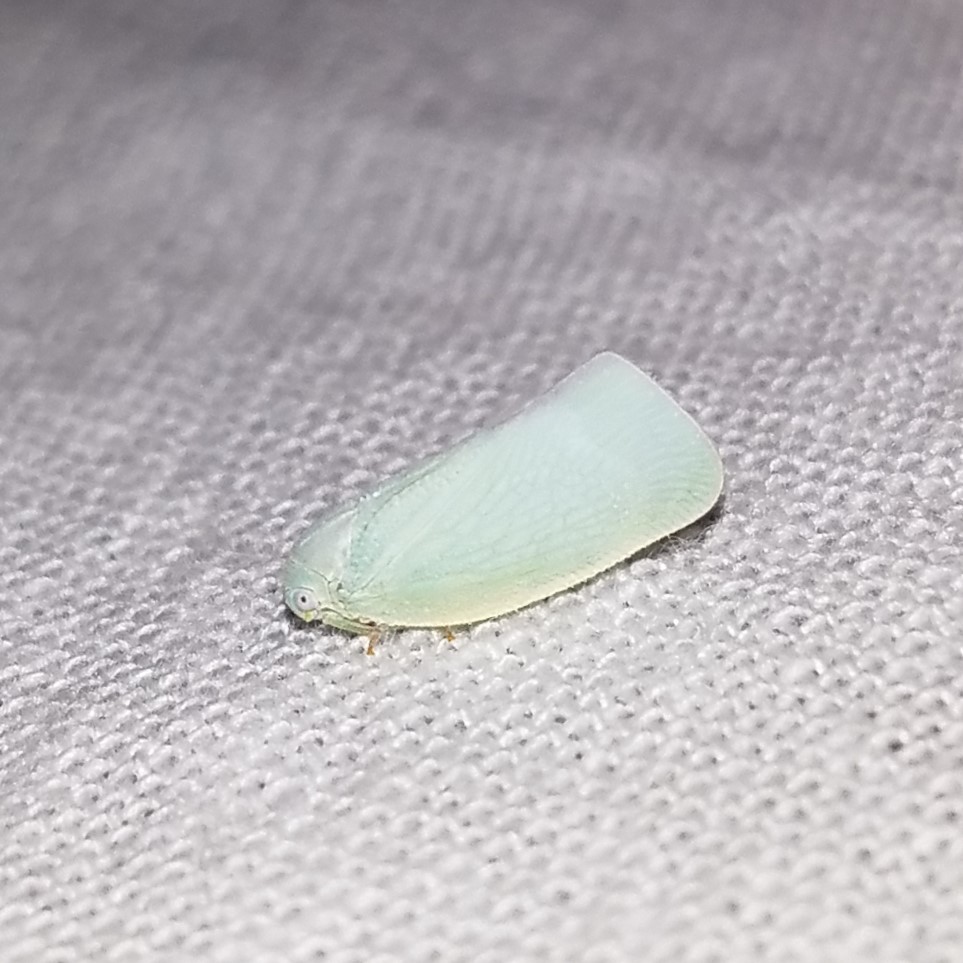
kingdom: Animalia
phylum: Arthropoda
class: Insecta
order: Hemiptera
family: Flatidae
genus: Flatormenis
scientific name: Flatormenis proxima
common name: Northern flatid planthopper
